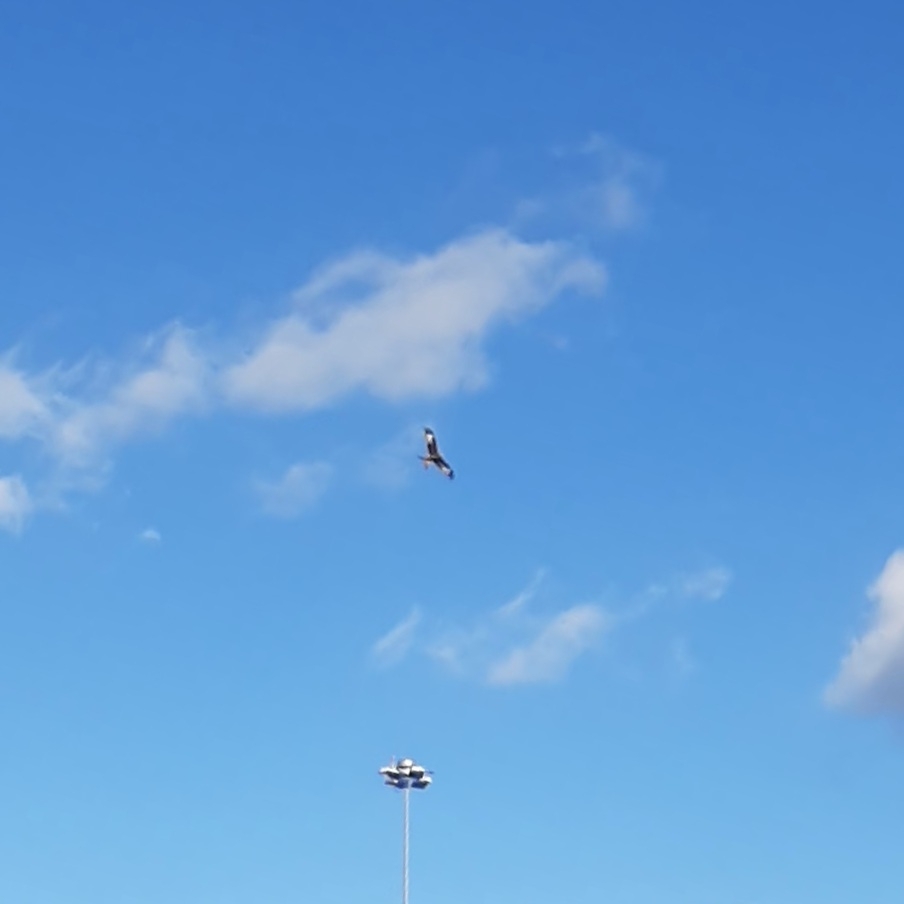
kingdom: Animalia
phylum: Chordata
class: Aves
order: Accipitriformes
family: Accipitridae
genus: Milvus
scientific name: Milvus milvus
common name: Red kite
